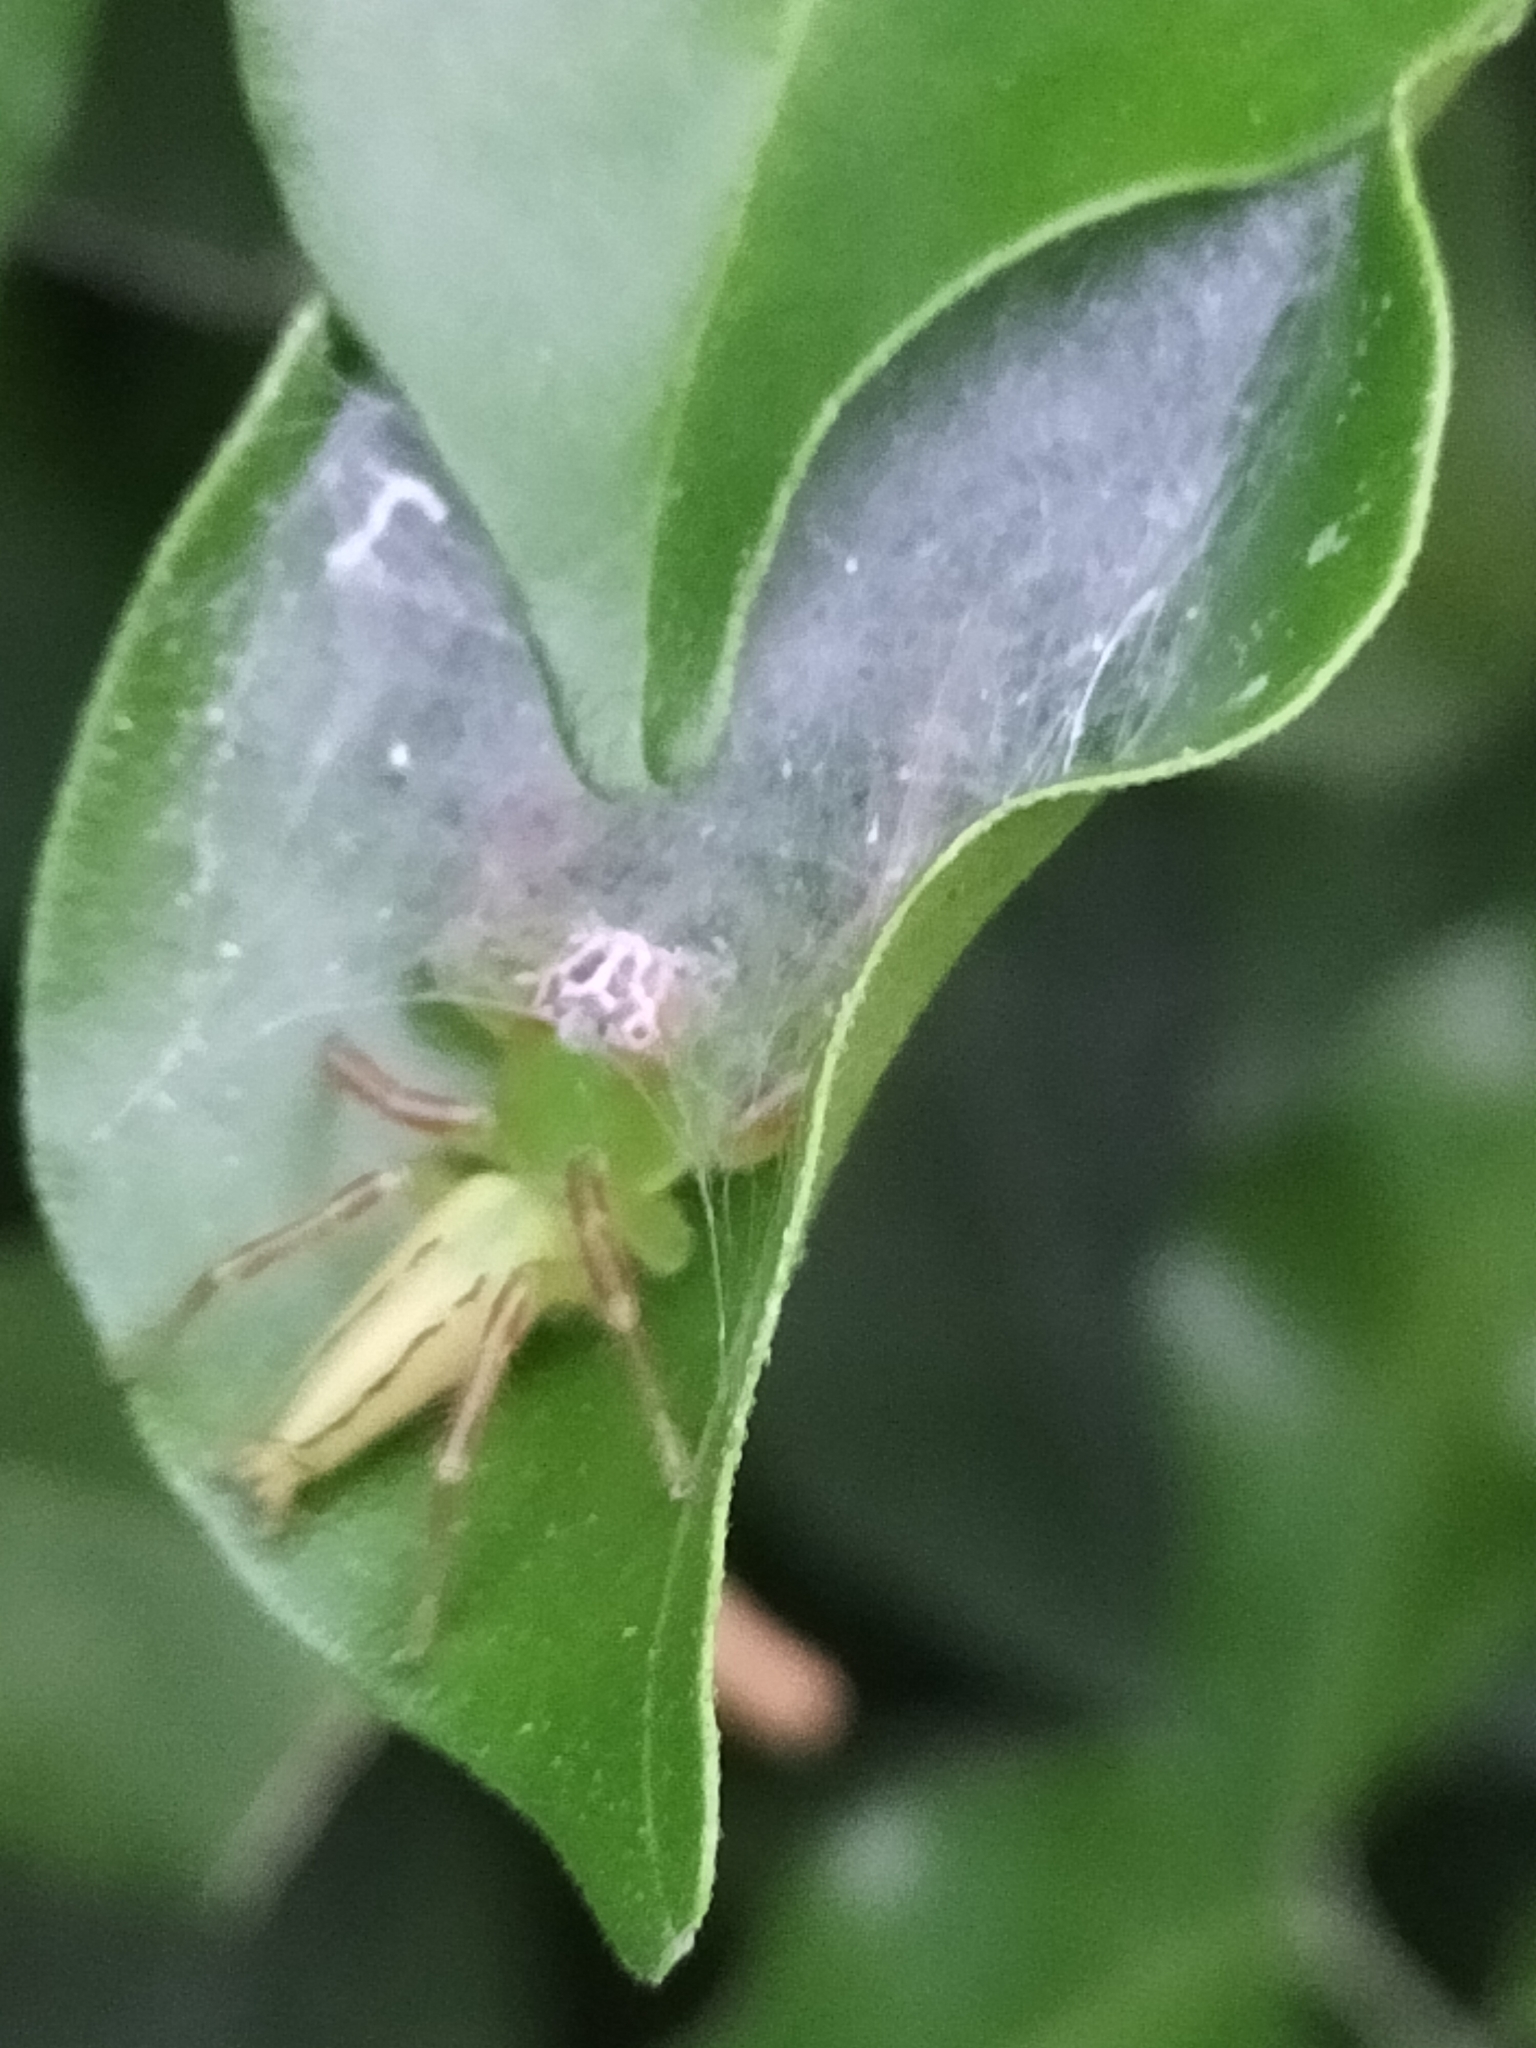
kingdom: Animalia
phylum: Arthropoda
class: Arachnida
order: Araneae
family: Salticidae
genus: Mopsus
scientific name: Mopsus mormon
